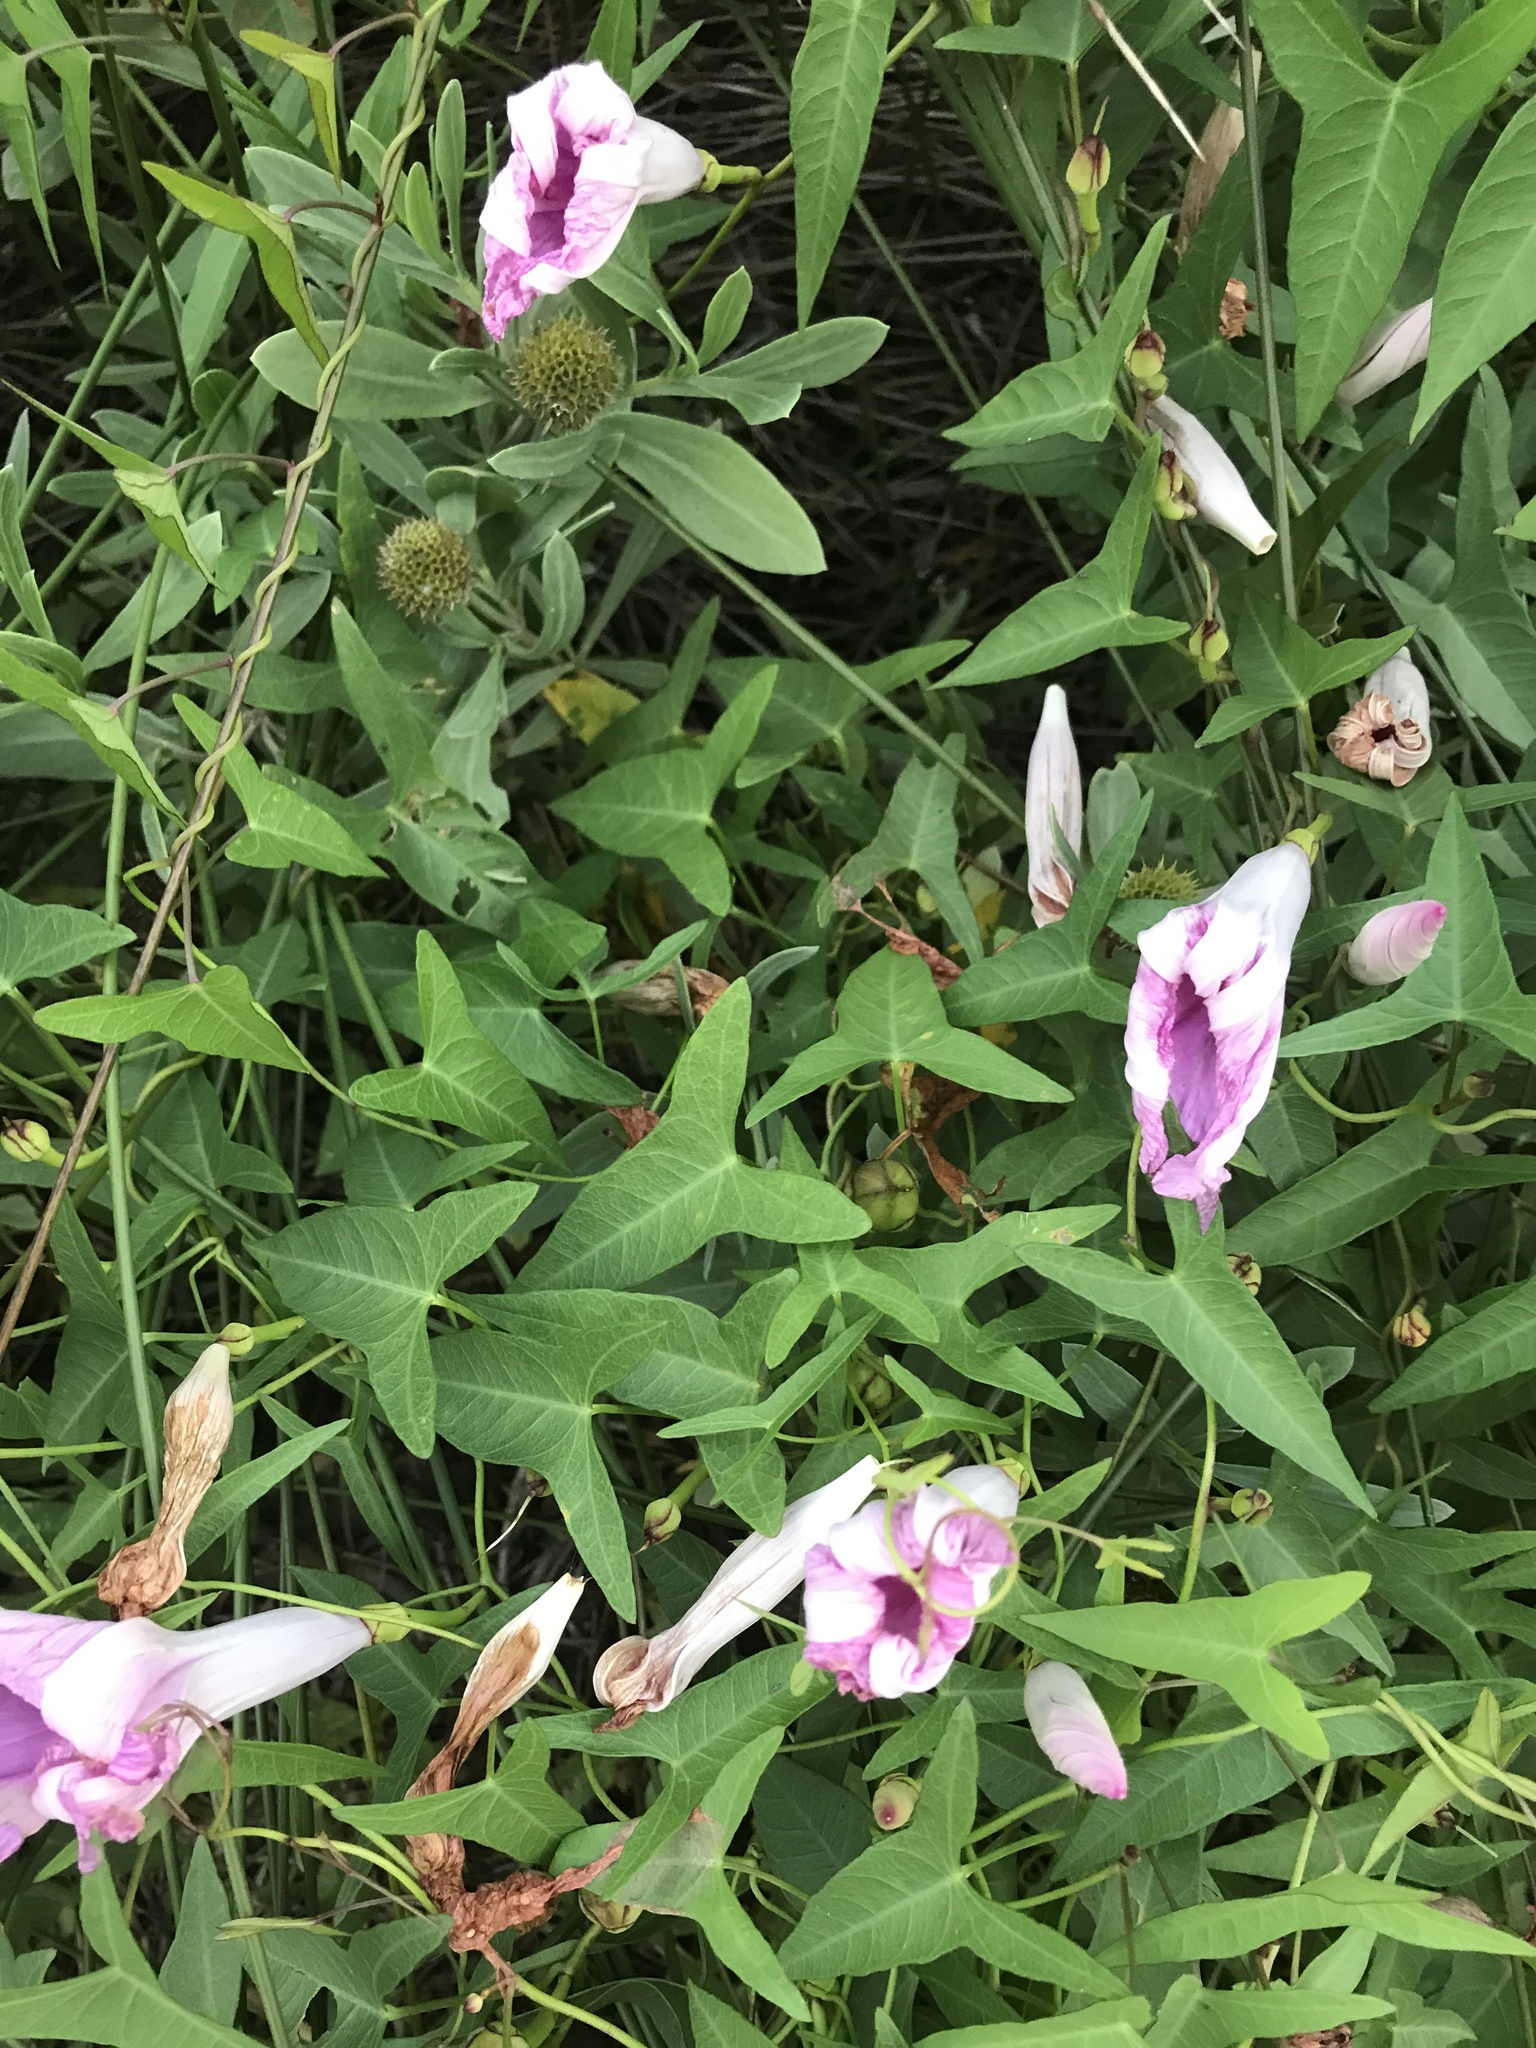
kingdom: Plantae
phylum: Tracheophyta
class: Magnoliopsida
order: Solanales
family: Convolvulaceae
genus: Ipomoea
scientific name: Ipomoea sagittata
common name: Saltmarsh morning glory
